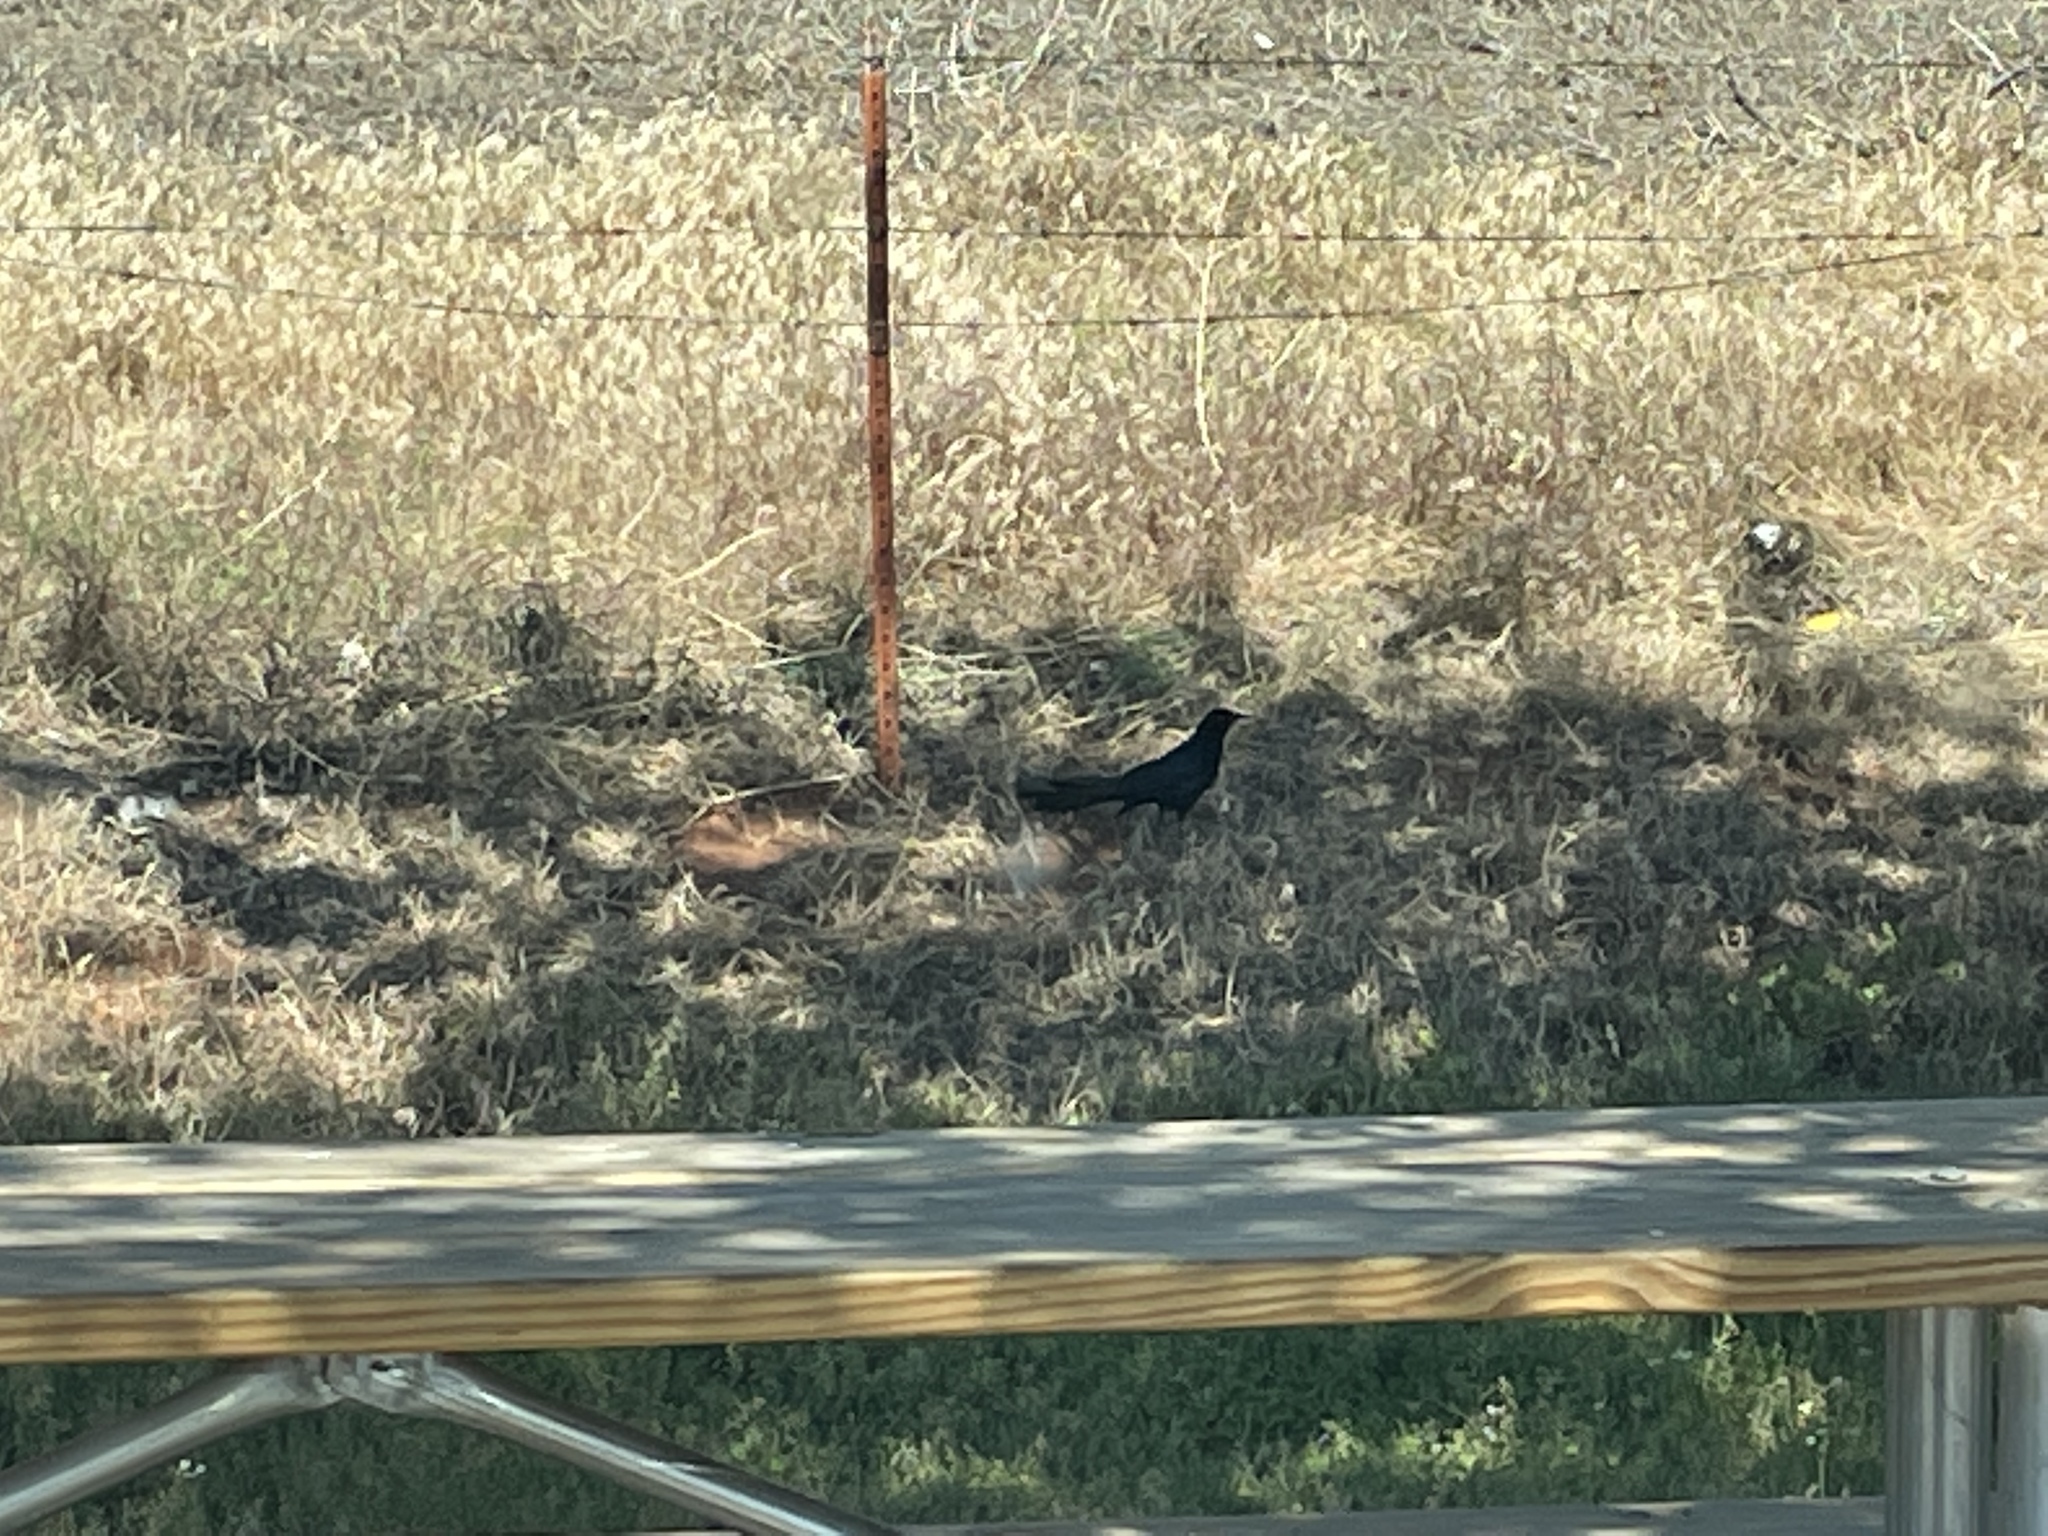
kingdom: Animalia
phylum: Chordata
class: Aves
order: Passeriformes
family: Icteridae
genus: Quiscalus
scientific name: Quiscalus mexicanus
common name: Great-tailed grackle
